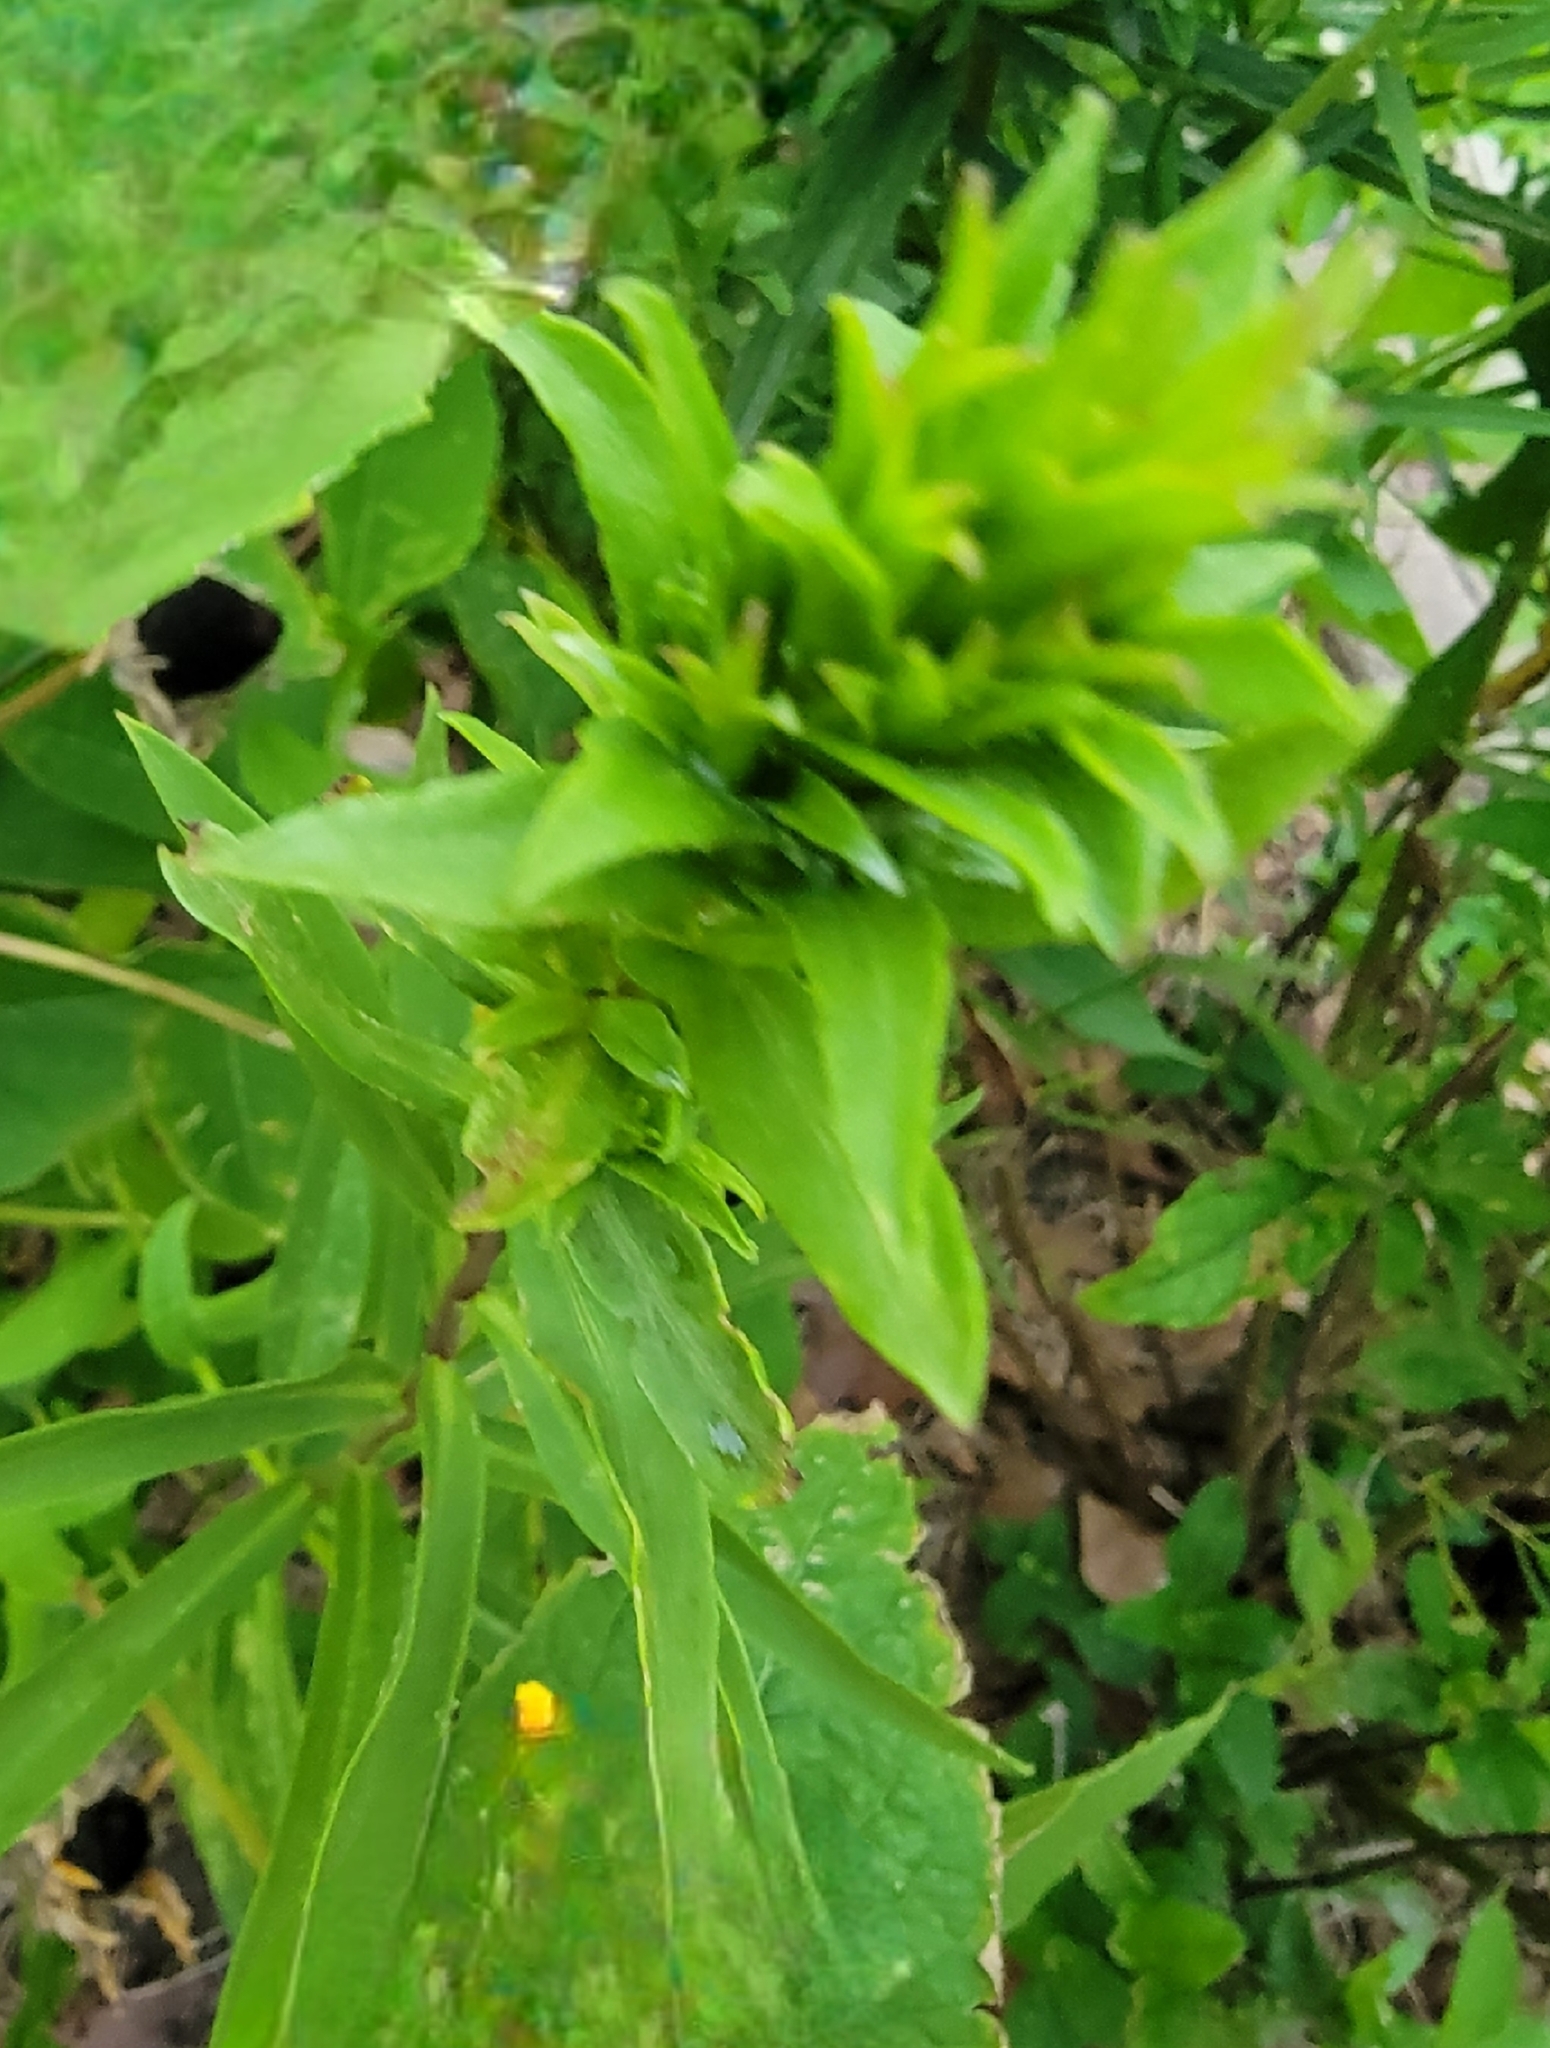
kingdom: Animalia
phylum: Arthropoda
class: Insecta
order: Diptera
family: Cecidomyiidae
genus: Rhopalomyia
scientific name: Rhopalomyia solidaginis
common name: Goldenrod bunch gall midge
